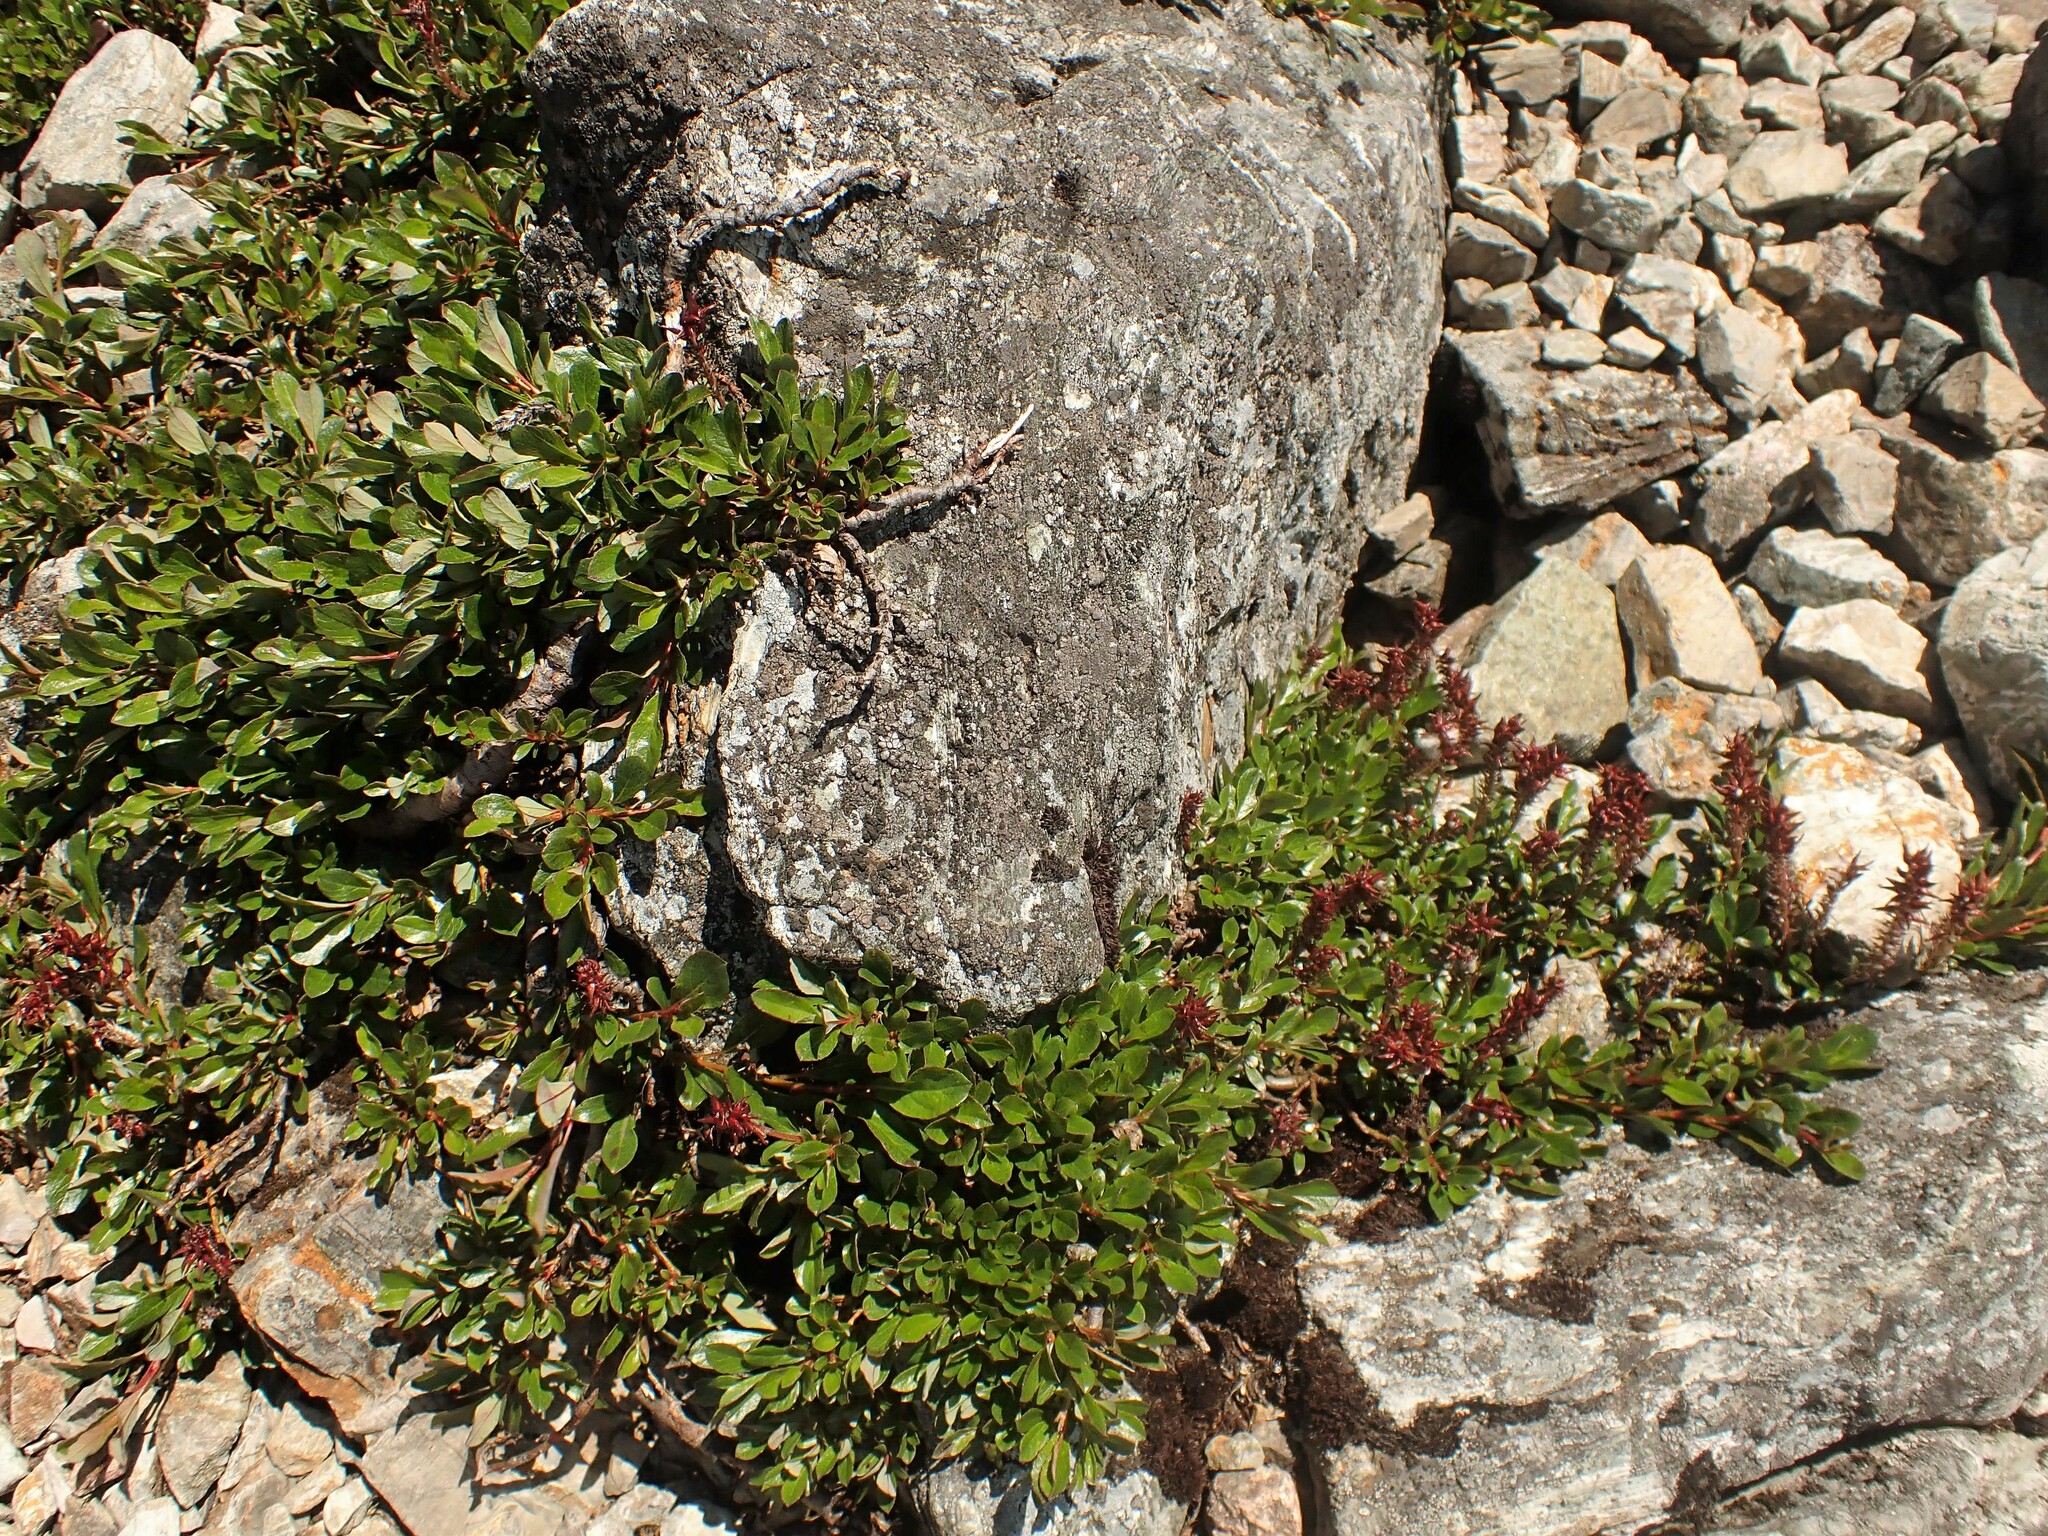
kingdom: Plantae
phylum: Tracheophyta
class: Magnoliopsida
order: Malpighiales
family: Salicaceae
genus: Salix
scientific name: Salix uva-ursi
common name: Bearberry willow
